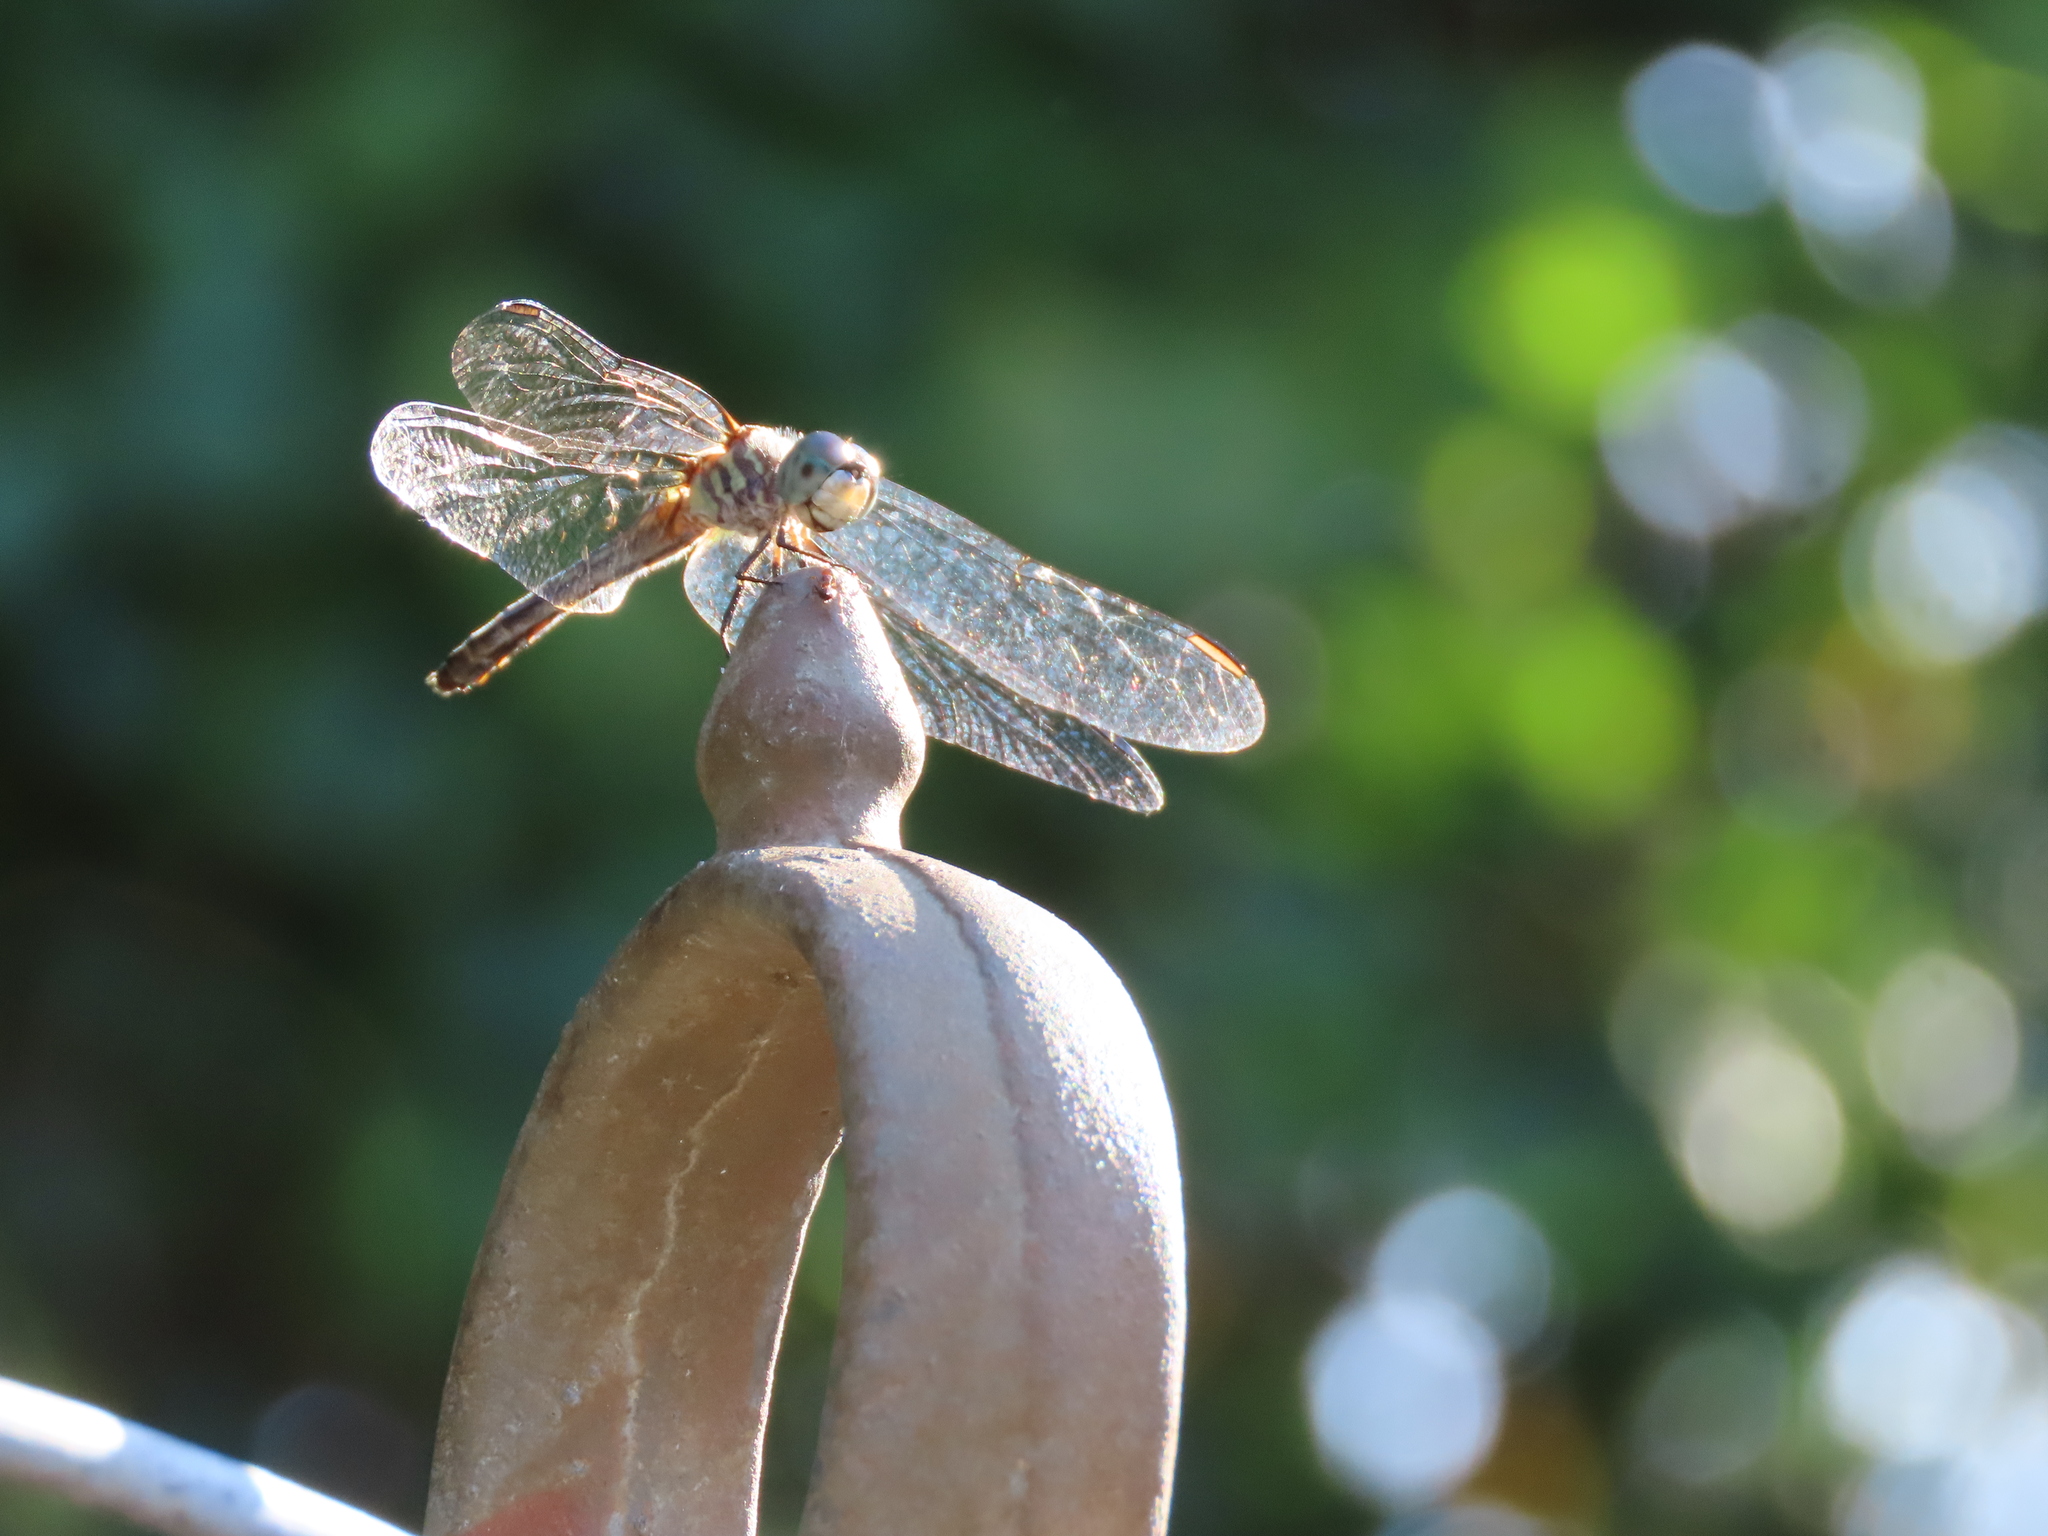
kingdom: Animalia
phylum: Arthropoda
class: Insecta
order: Odonata
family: Libellulidae
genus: Pachydiplax
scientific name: Pachydiplax longipennis
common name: Blue dasher
